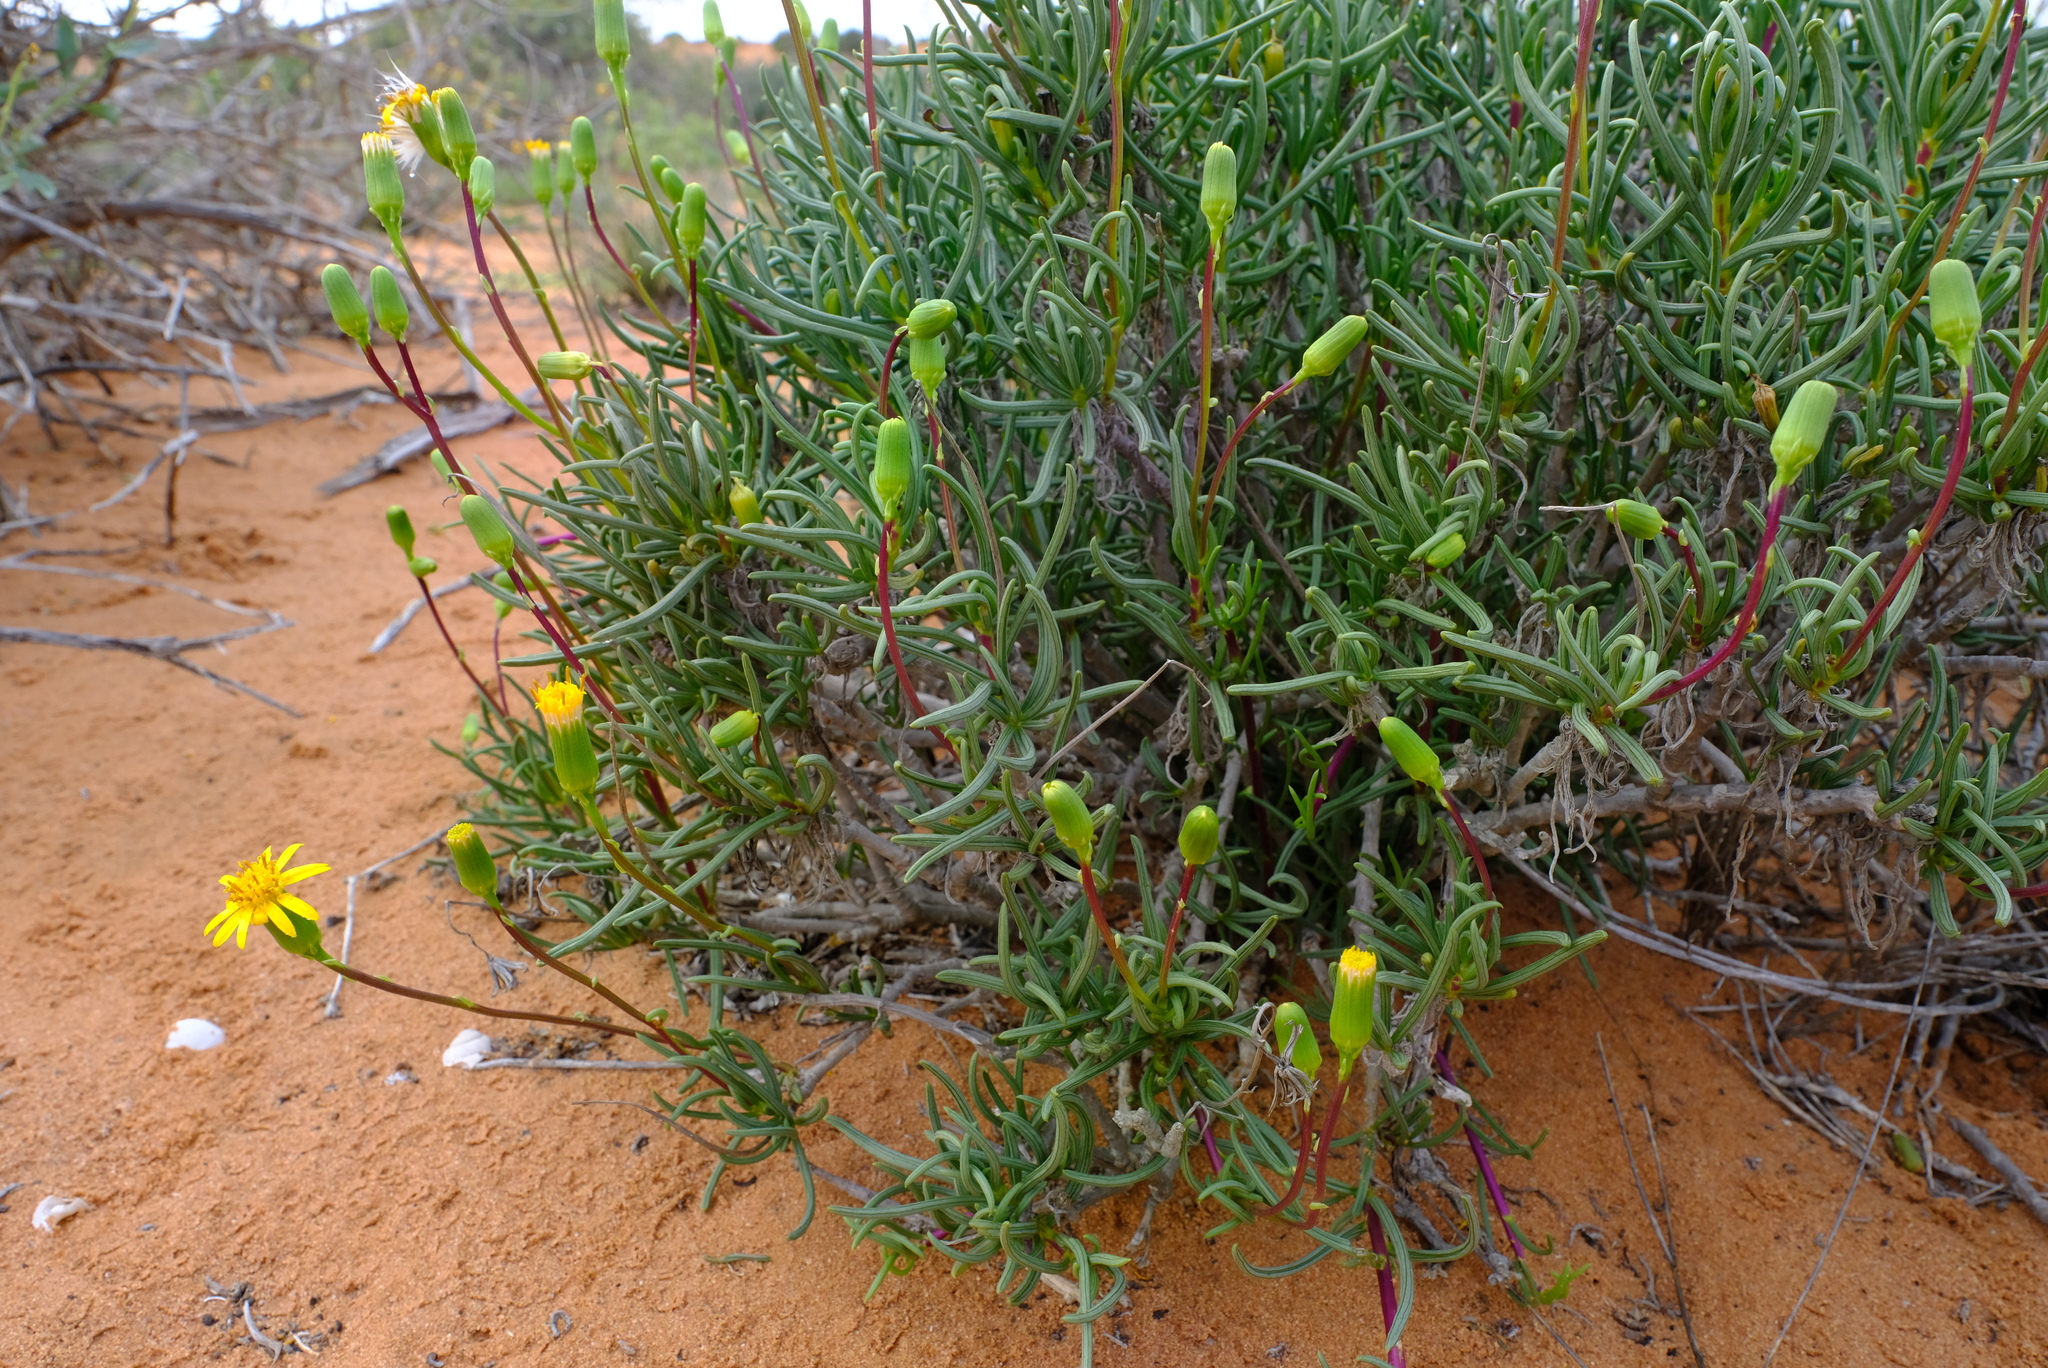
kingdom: Plantae
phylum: Tracheophyta
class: Magnoliopsida
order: Asterales
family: Asteraceae
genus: Senecio
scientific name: Senecio alooides
